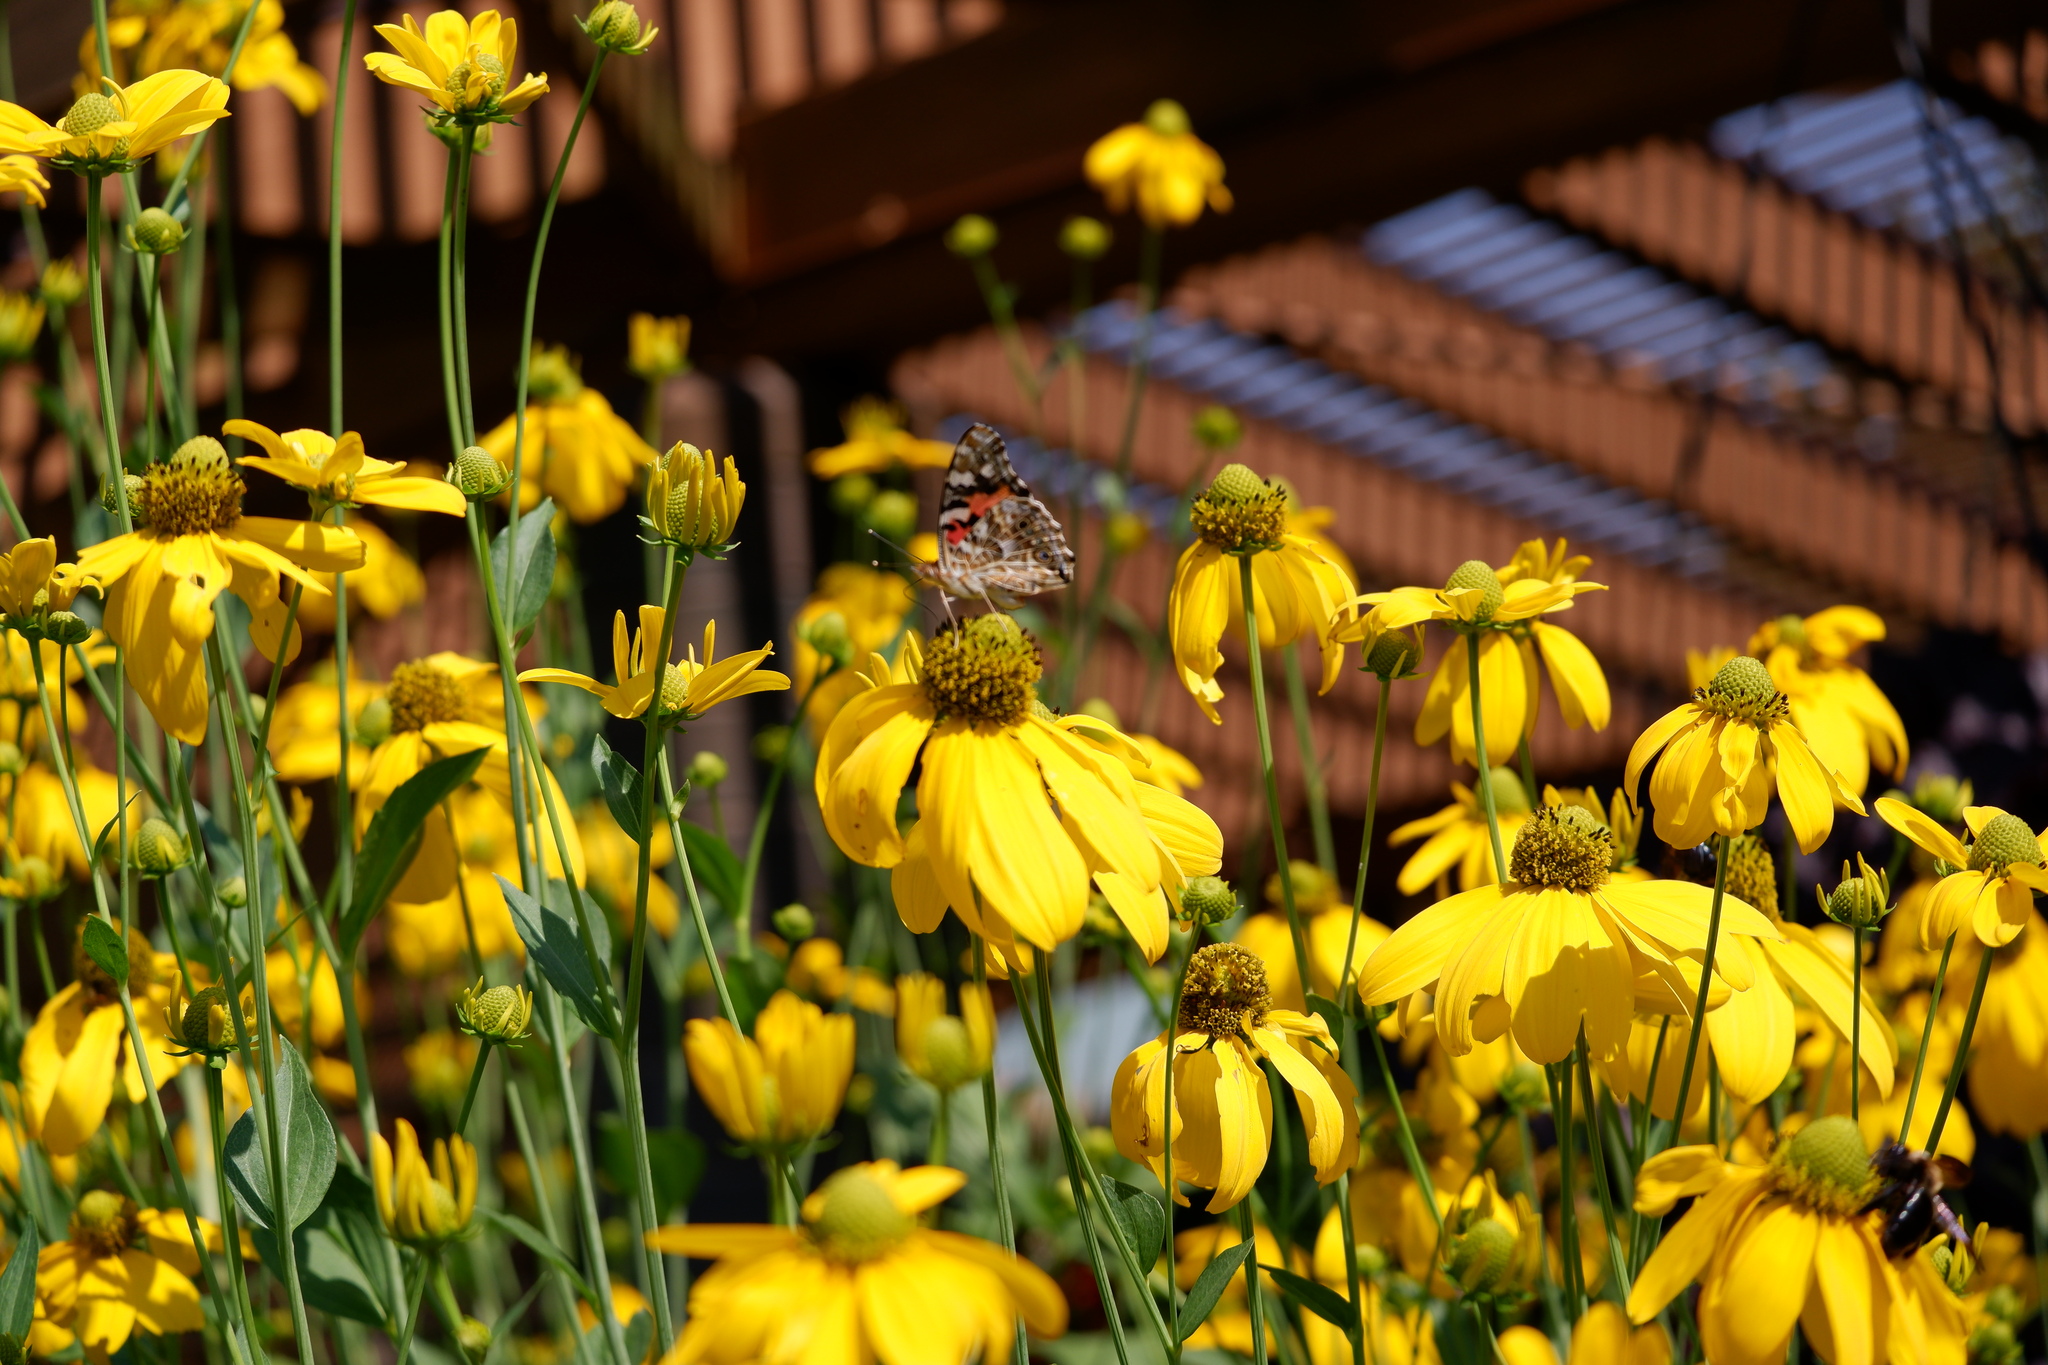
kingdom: Animalia
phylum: Arthropoda
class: Insecta
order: Lepidoptera
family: Nymphalidae
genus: Vanessa
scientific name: Vanessa cardui
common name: Painted lady
